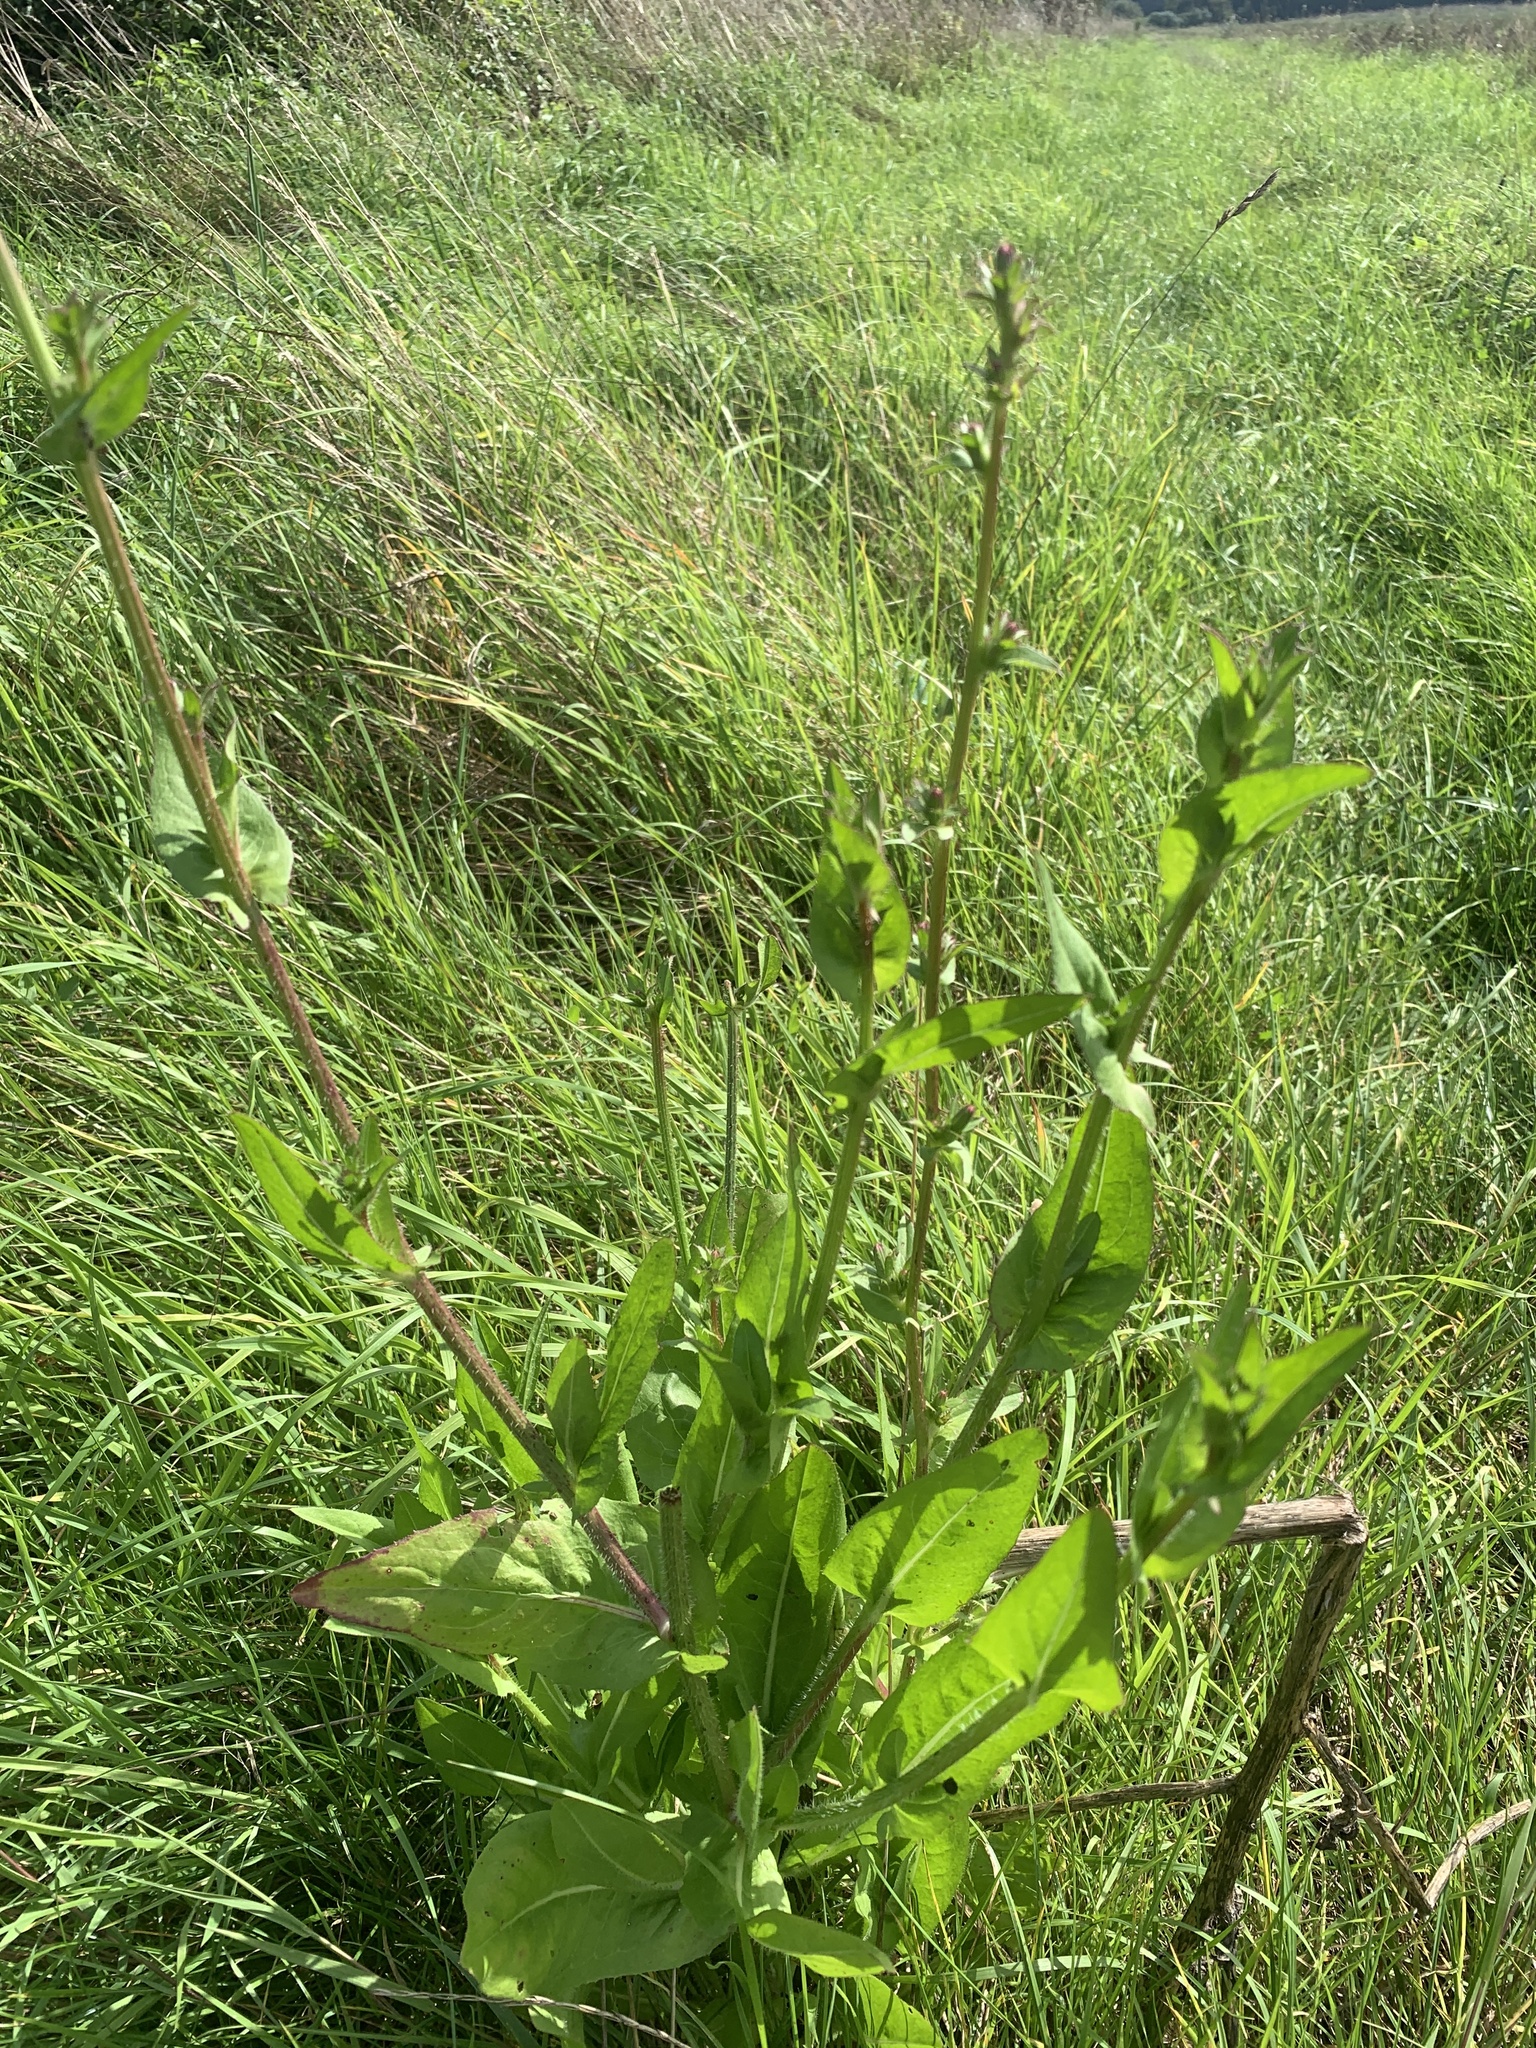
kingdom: Plantae
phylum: Tracheophyta
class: Magnoliopsida
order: Asterales
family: Asteraceae
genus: Cichorium
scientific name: Cichorium intybus
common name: Chicory
